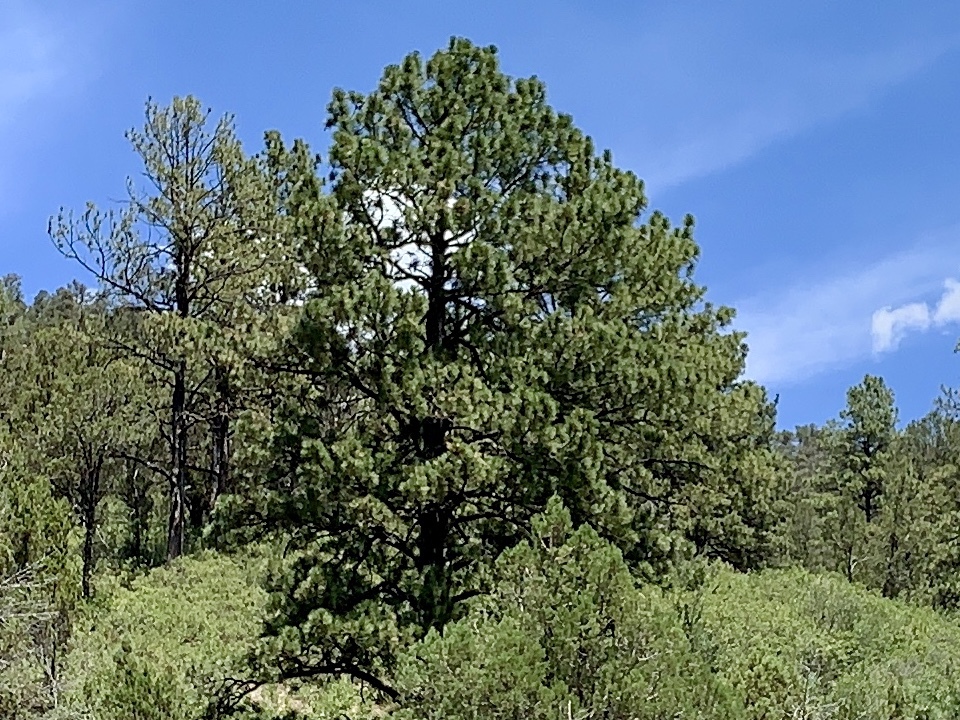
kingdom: Plantae
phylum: Tracheophyta
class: Pinopsida
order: Pinales
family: Pinaceae
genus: Pinus
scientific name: Pinus ponderosa
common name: Western yellow-pine
